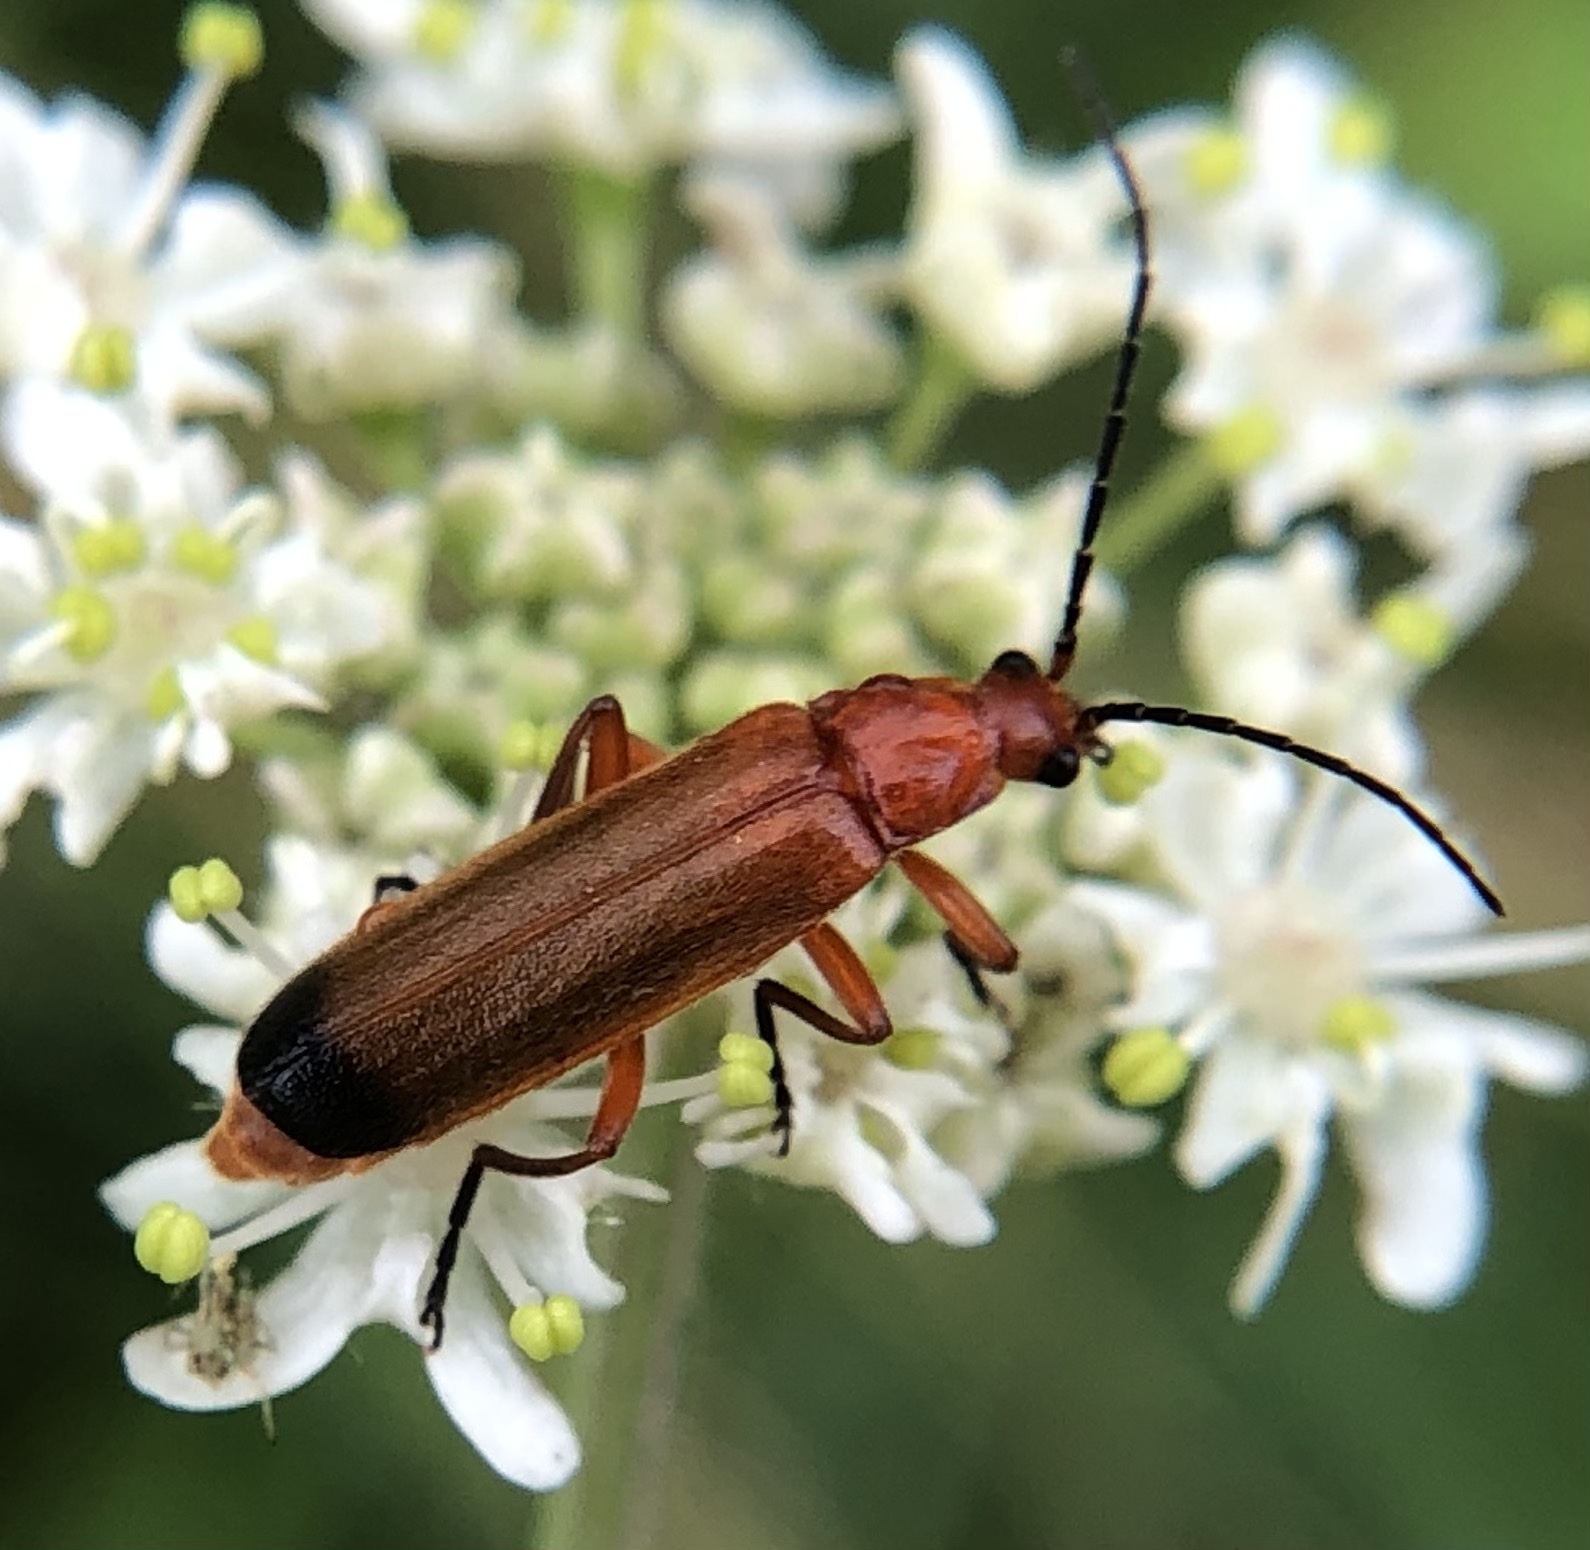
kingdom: Animalia
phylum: Arthropoda
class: Insecta
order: Coleoptera
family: Cantharidae
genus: Rhagonycha
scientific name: Rhagonycha fulva
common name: Common red soldier beetle
